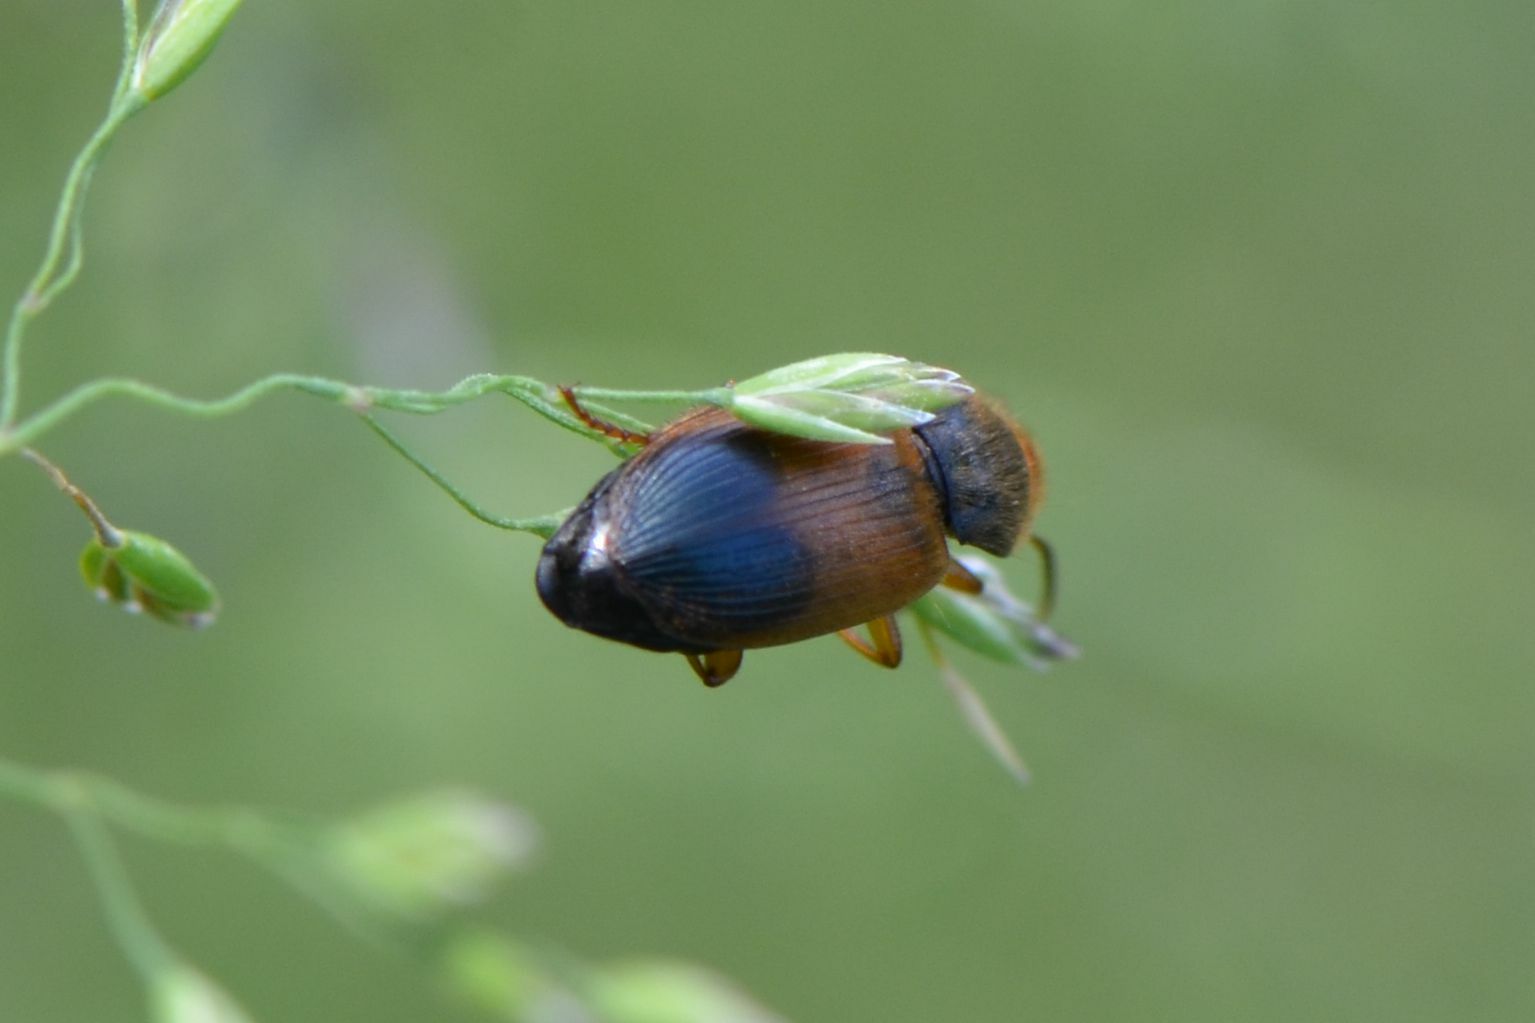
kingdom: Animalia
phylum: Arthropoda
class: Insecta
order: Coleoptera
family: Carabidae
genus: Diachromus
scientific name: Diachromus germanus
